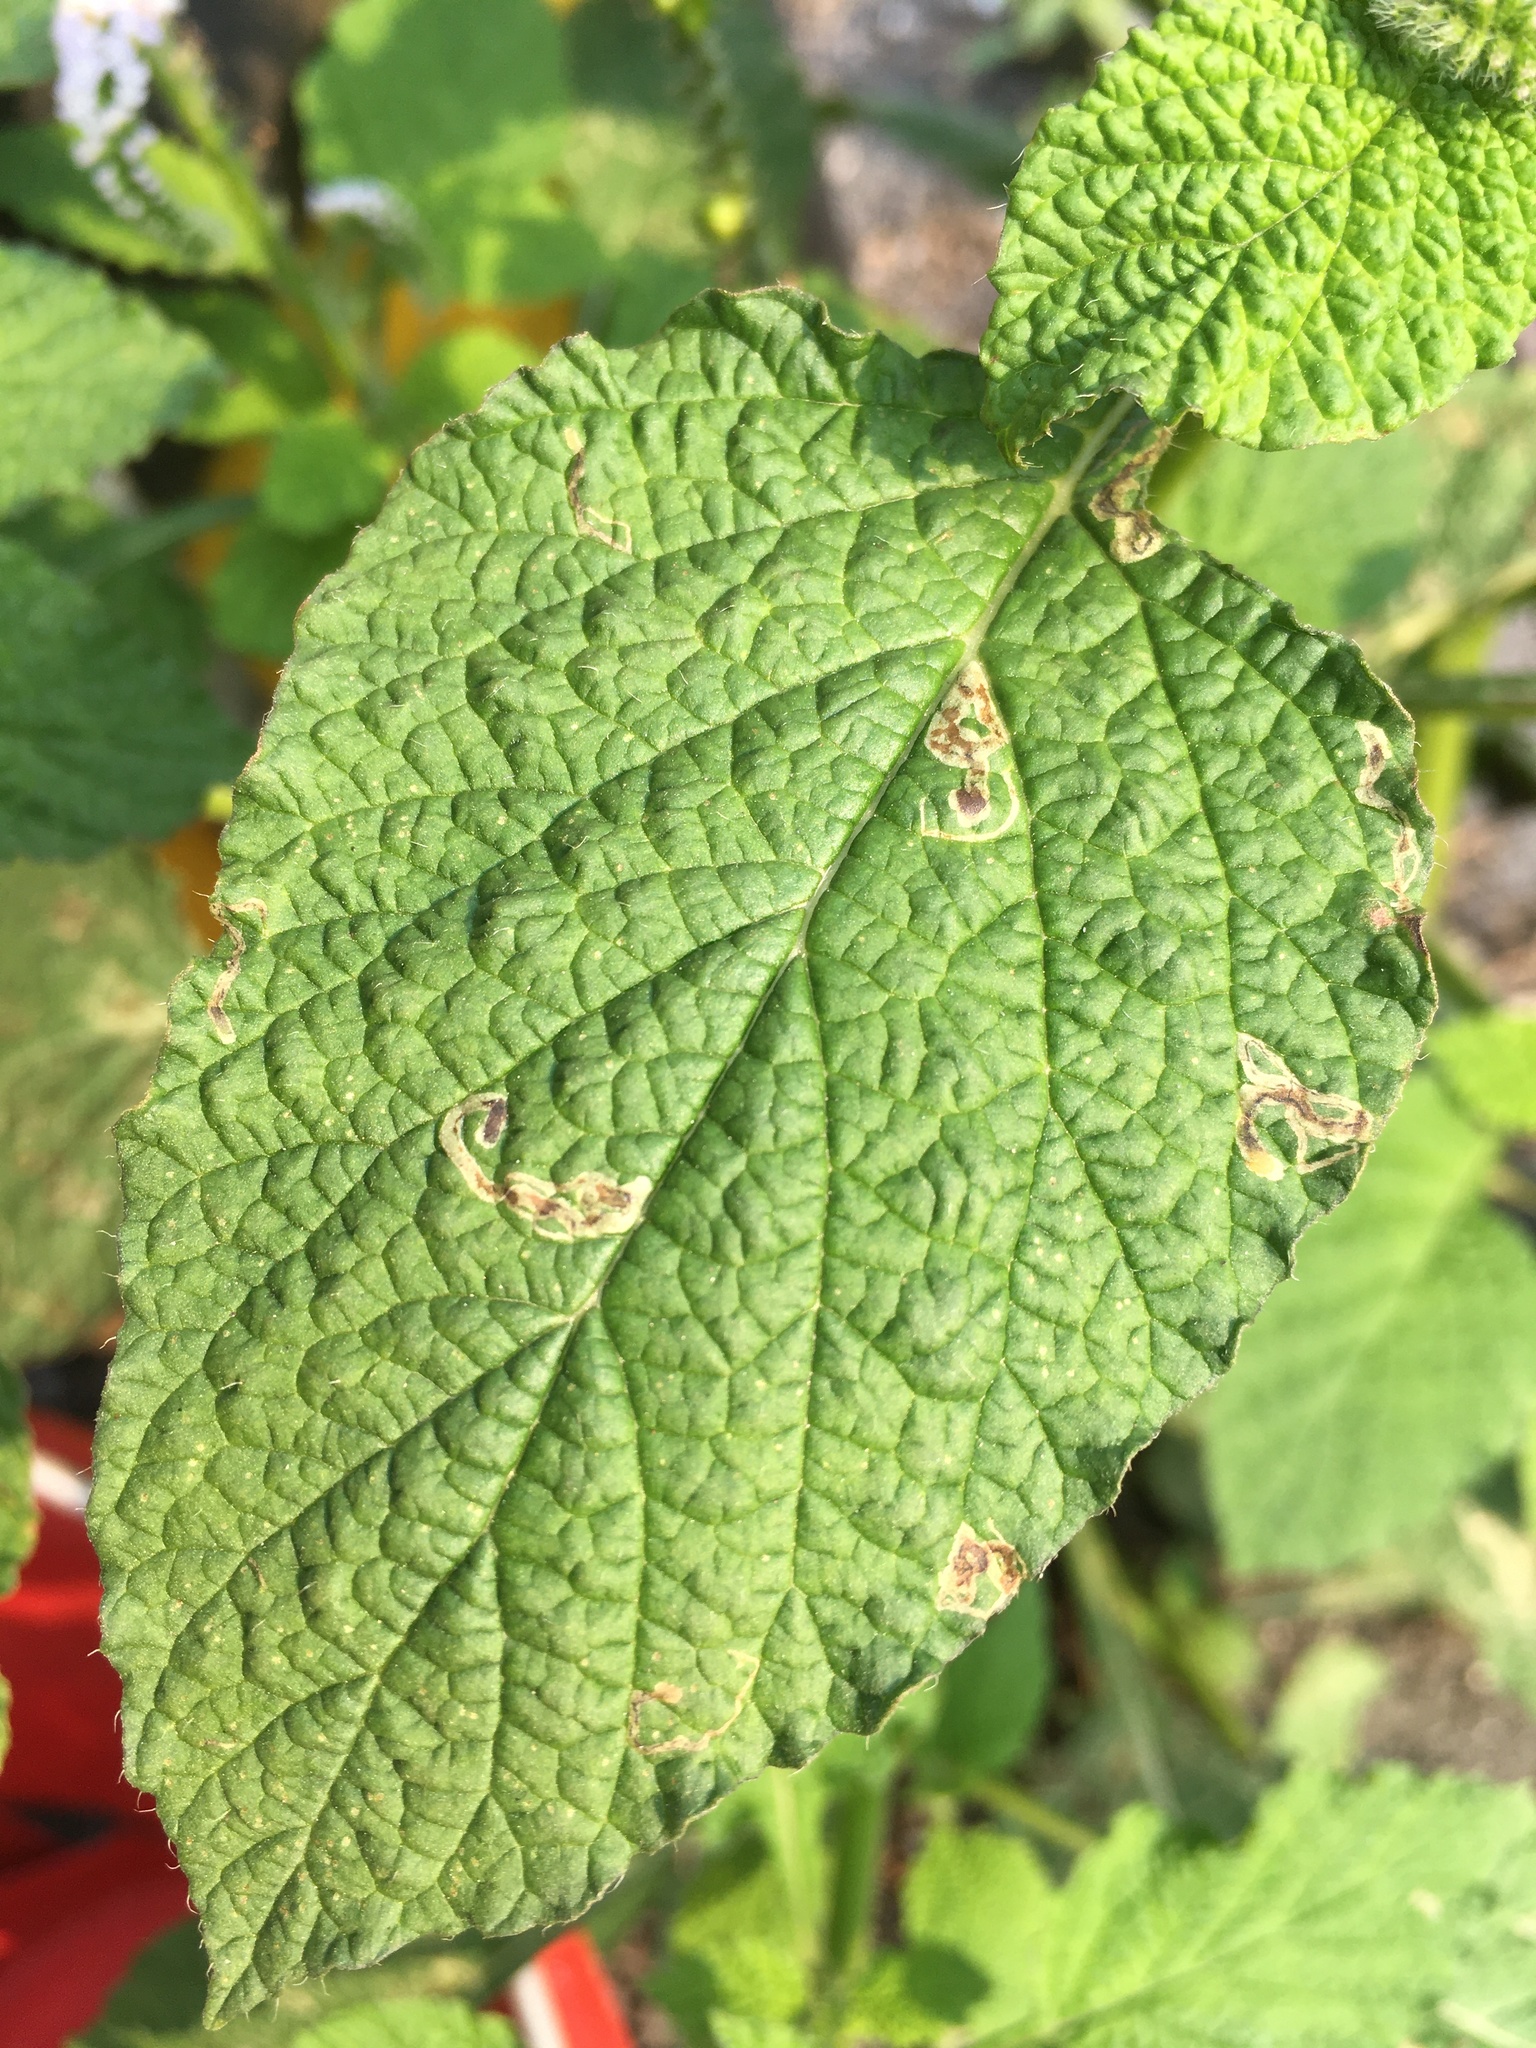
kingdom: Plantae
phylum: Tracheophyta
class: Magnoliopsida
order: Boraginales
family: Heliotropiaceae
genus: Heliotropium
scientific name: Heliotropium indicum
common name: Indian heliotrope
